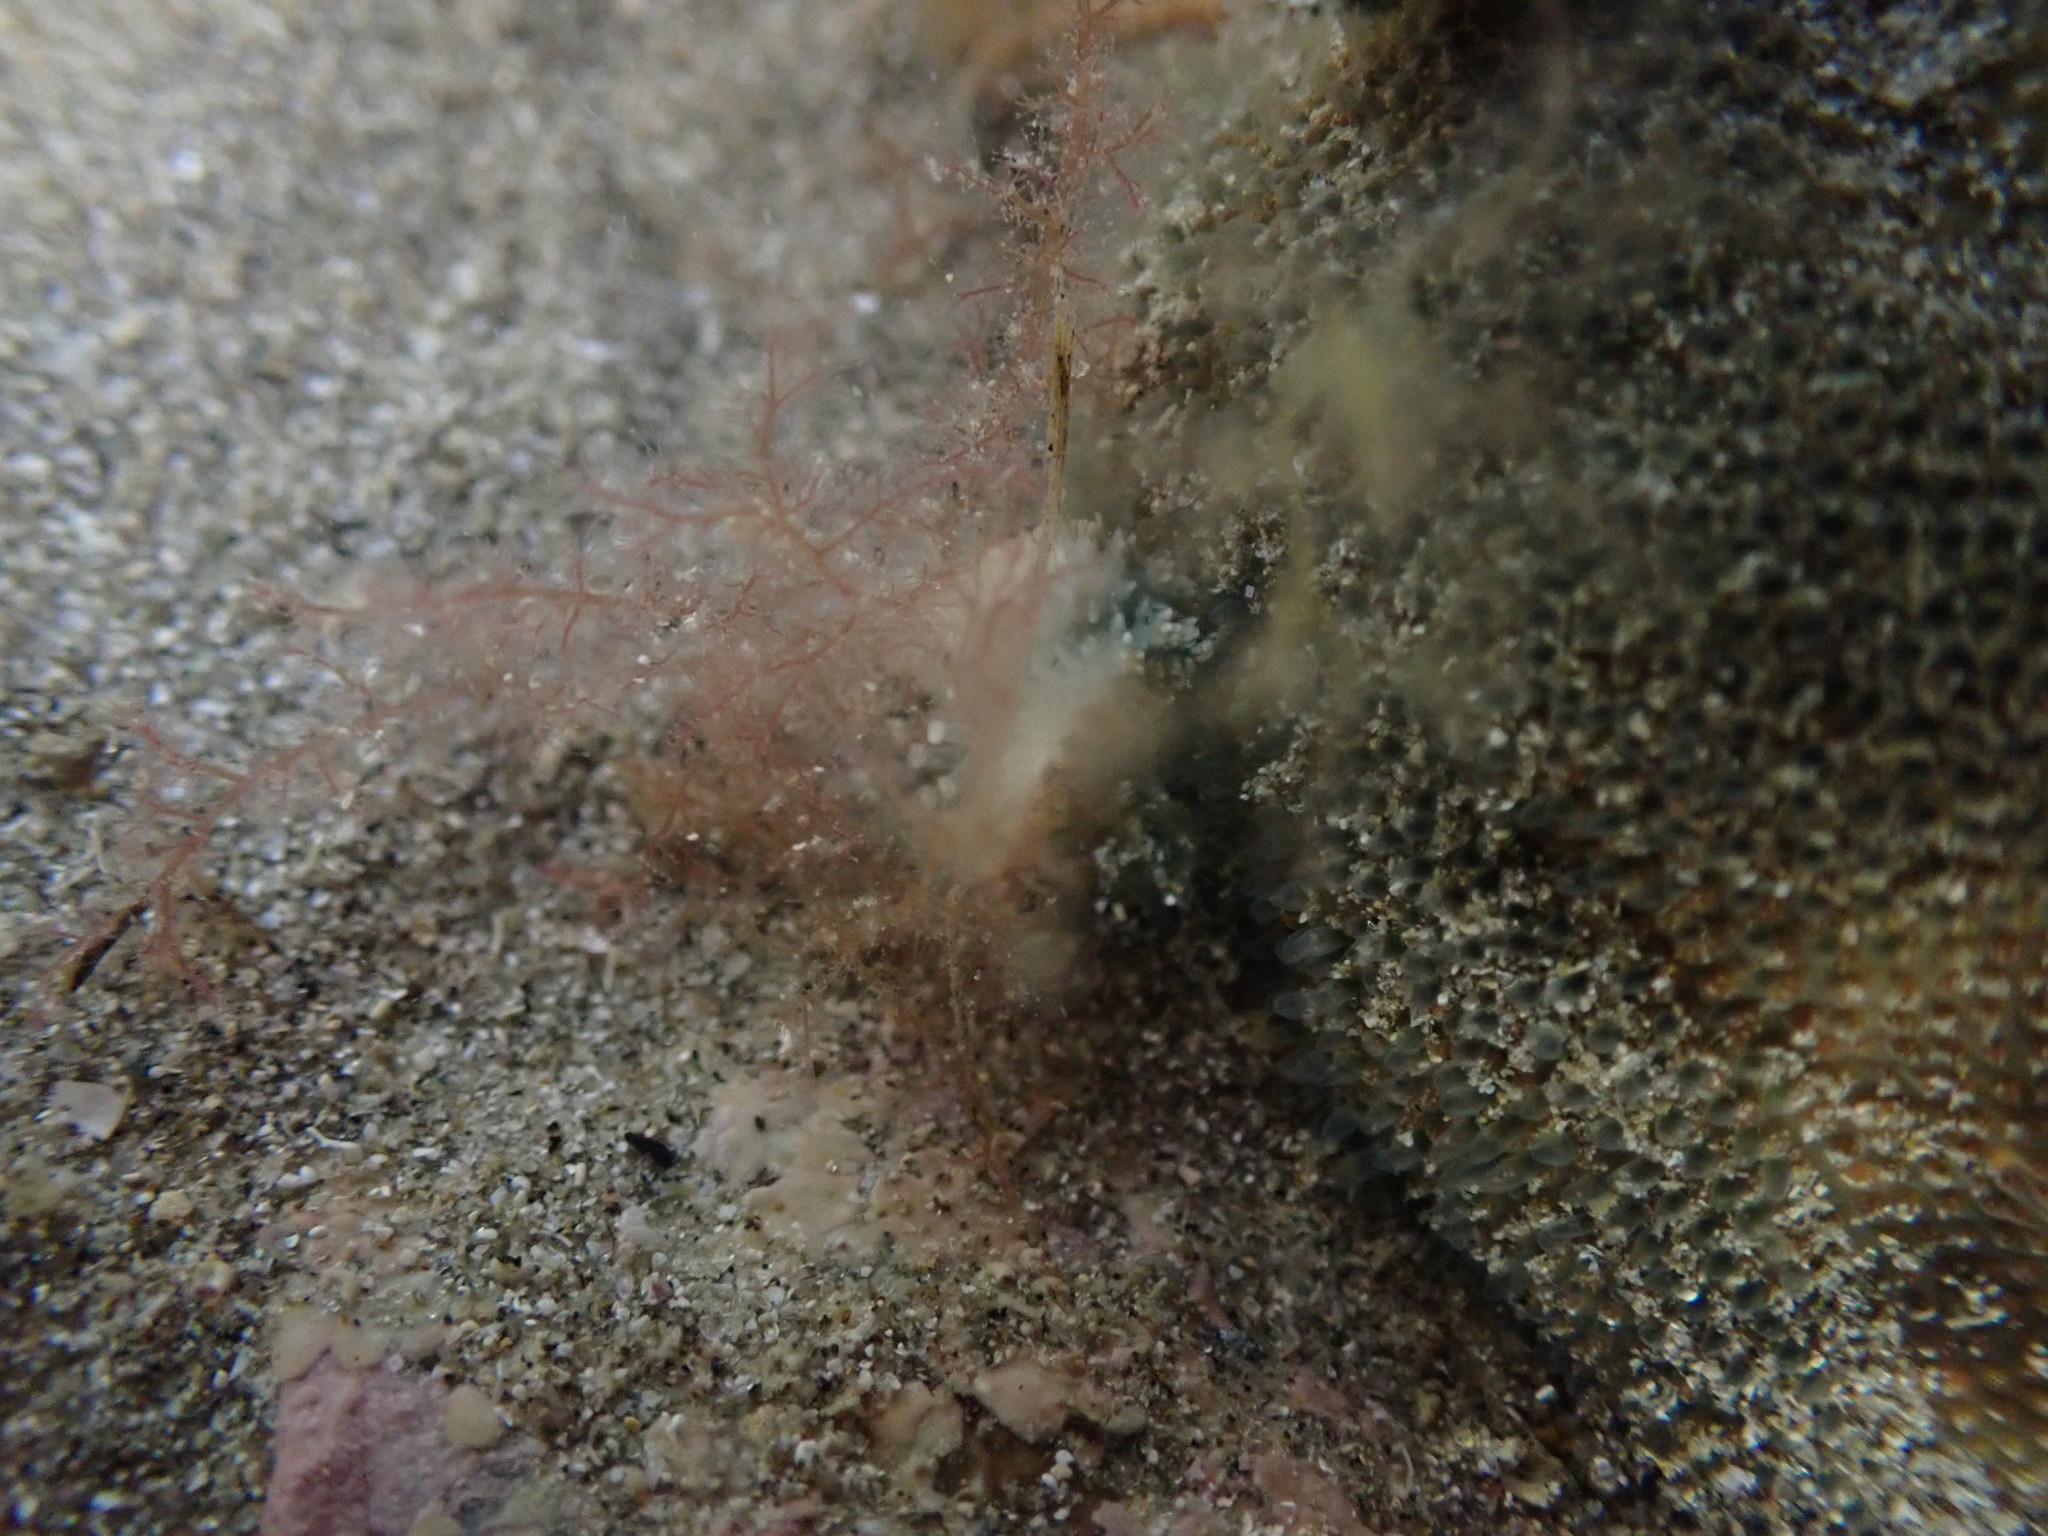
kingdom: Animalia
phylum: Echinodermata
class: Asteroidea
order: Valvatida
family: Asterinidae
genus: Patiriella
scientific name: Patiriella regularis
